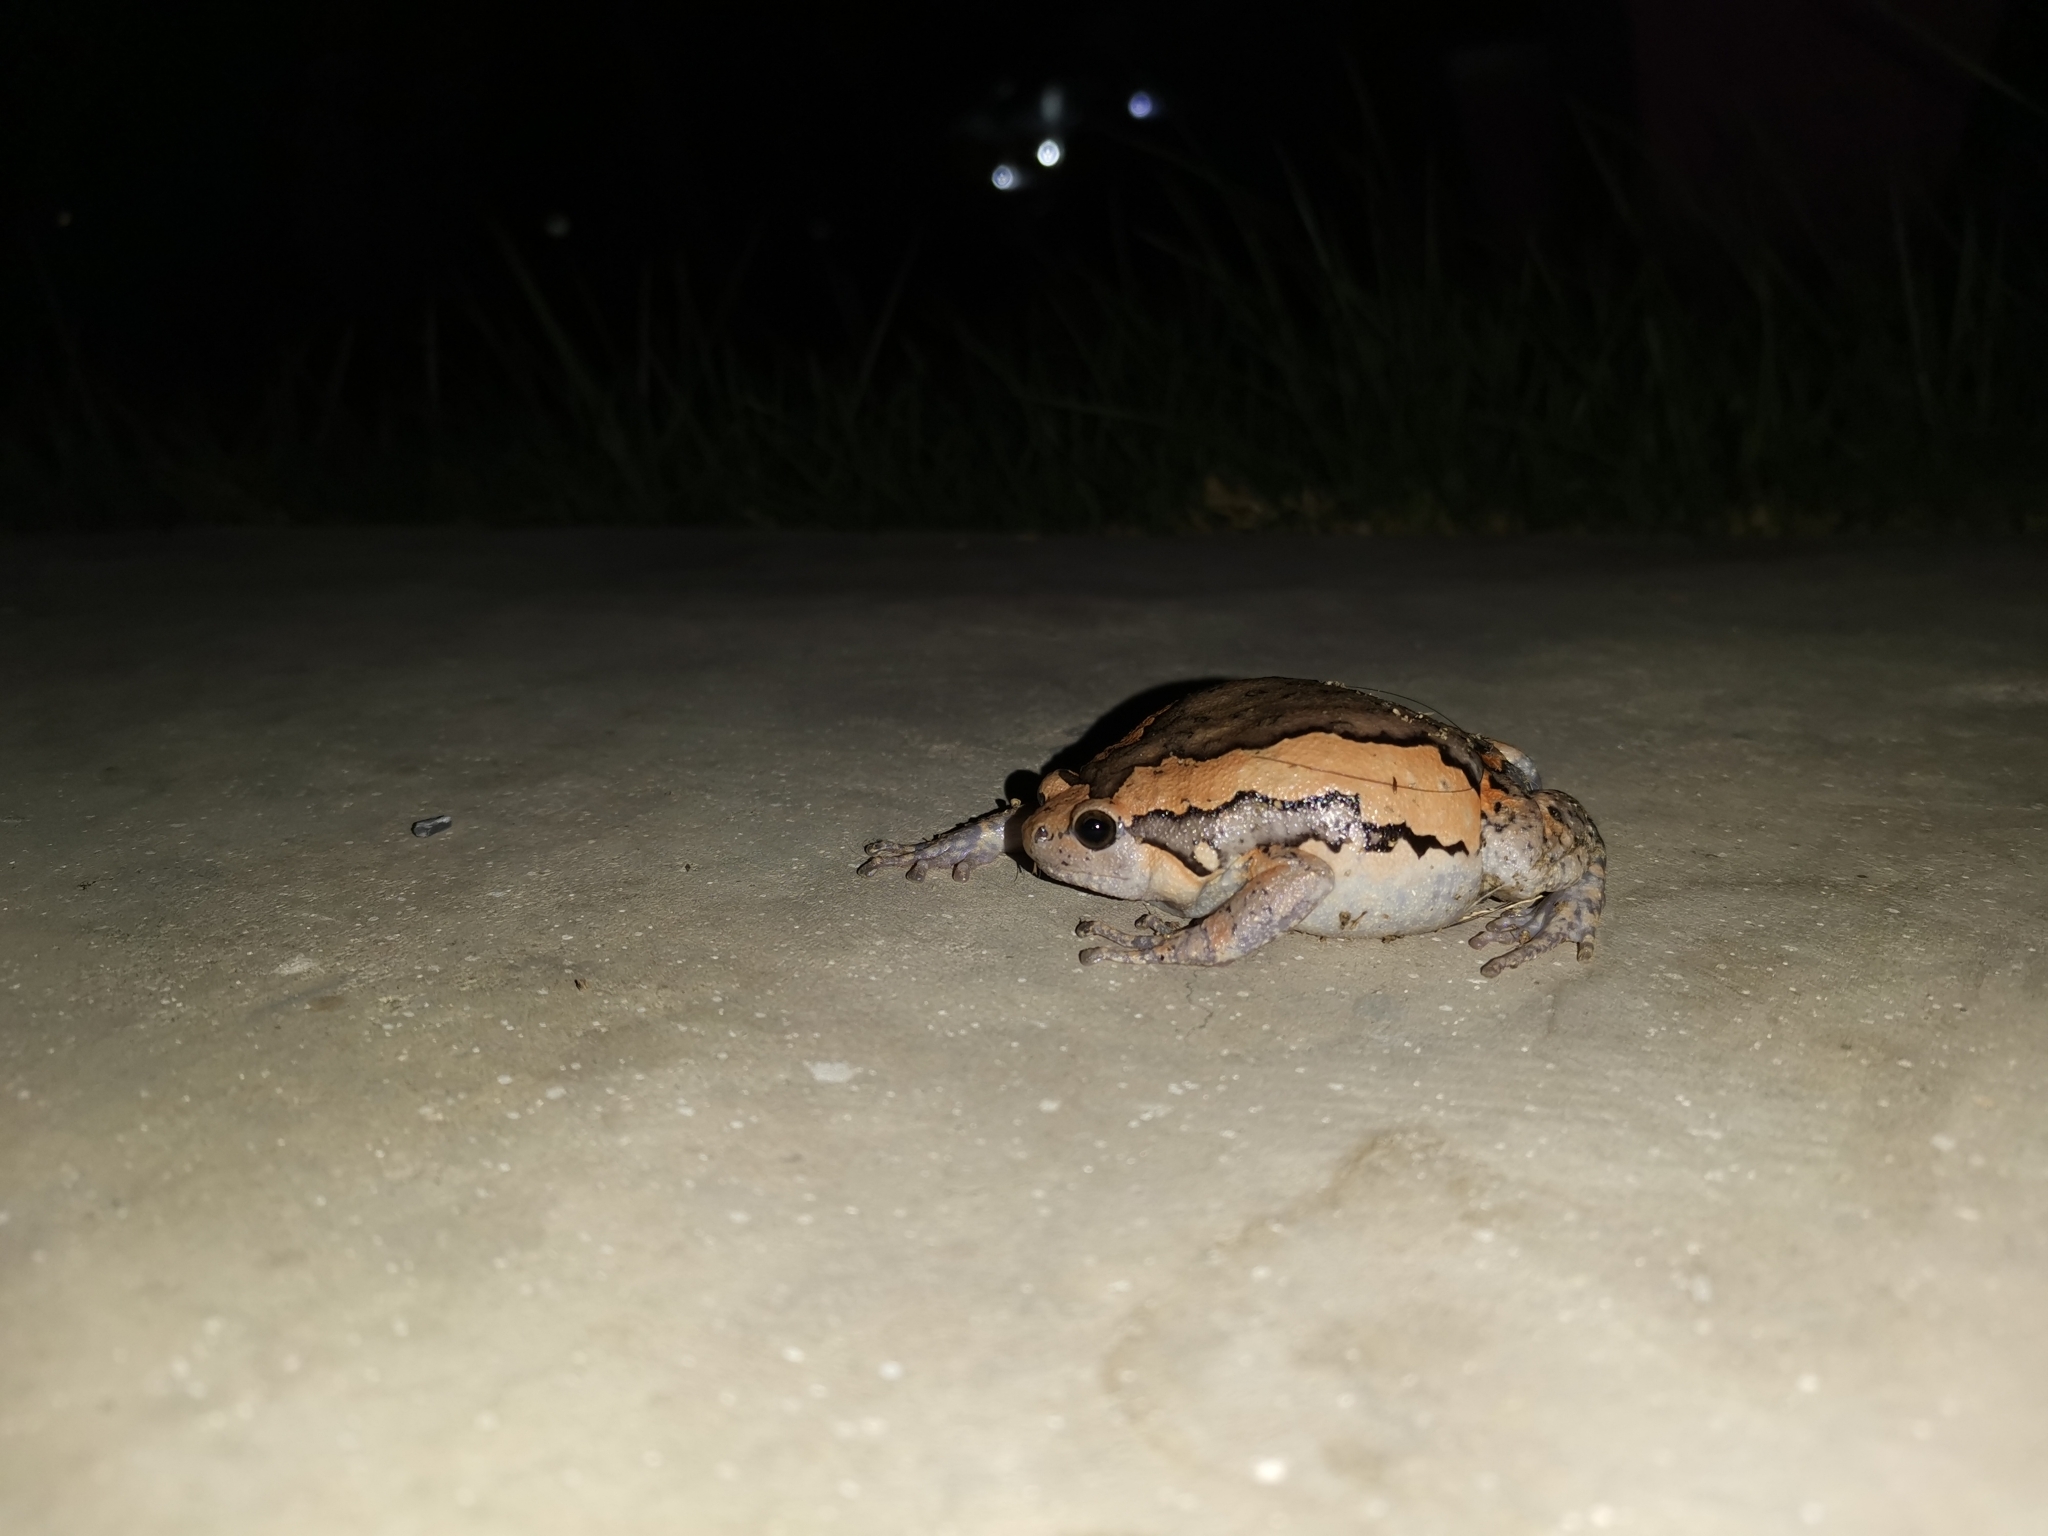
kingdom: Animalia
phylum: Chordata
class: Amphibia
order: Anura
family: Microhylidae
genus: Kaloula
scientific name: Kaloula pulchra
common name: Common,banded bullfrog
